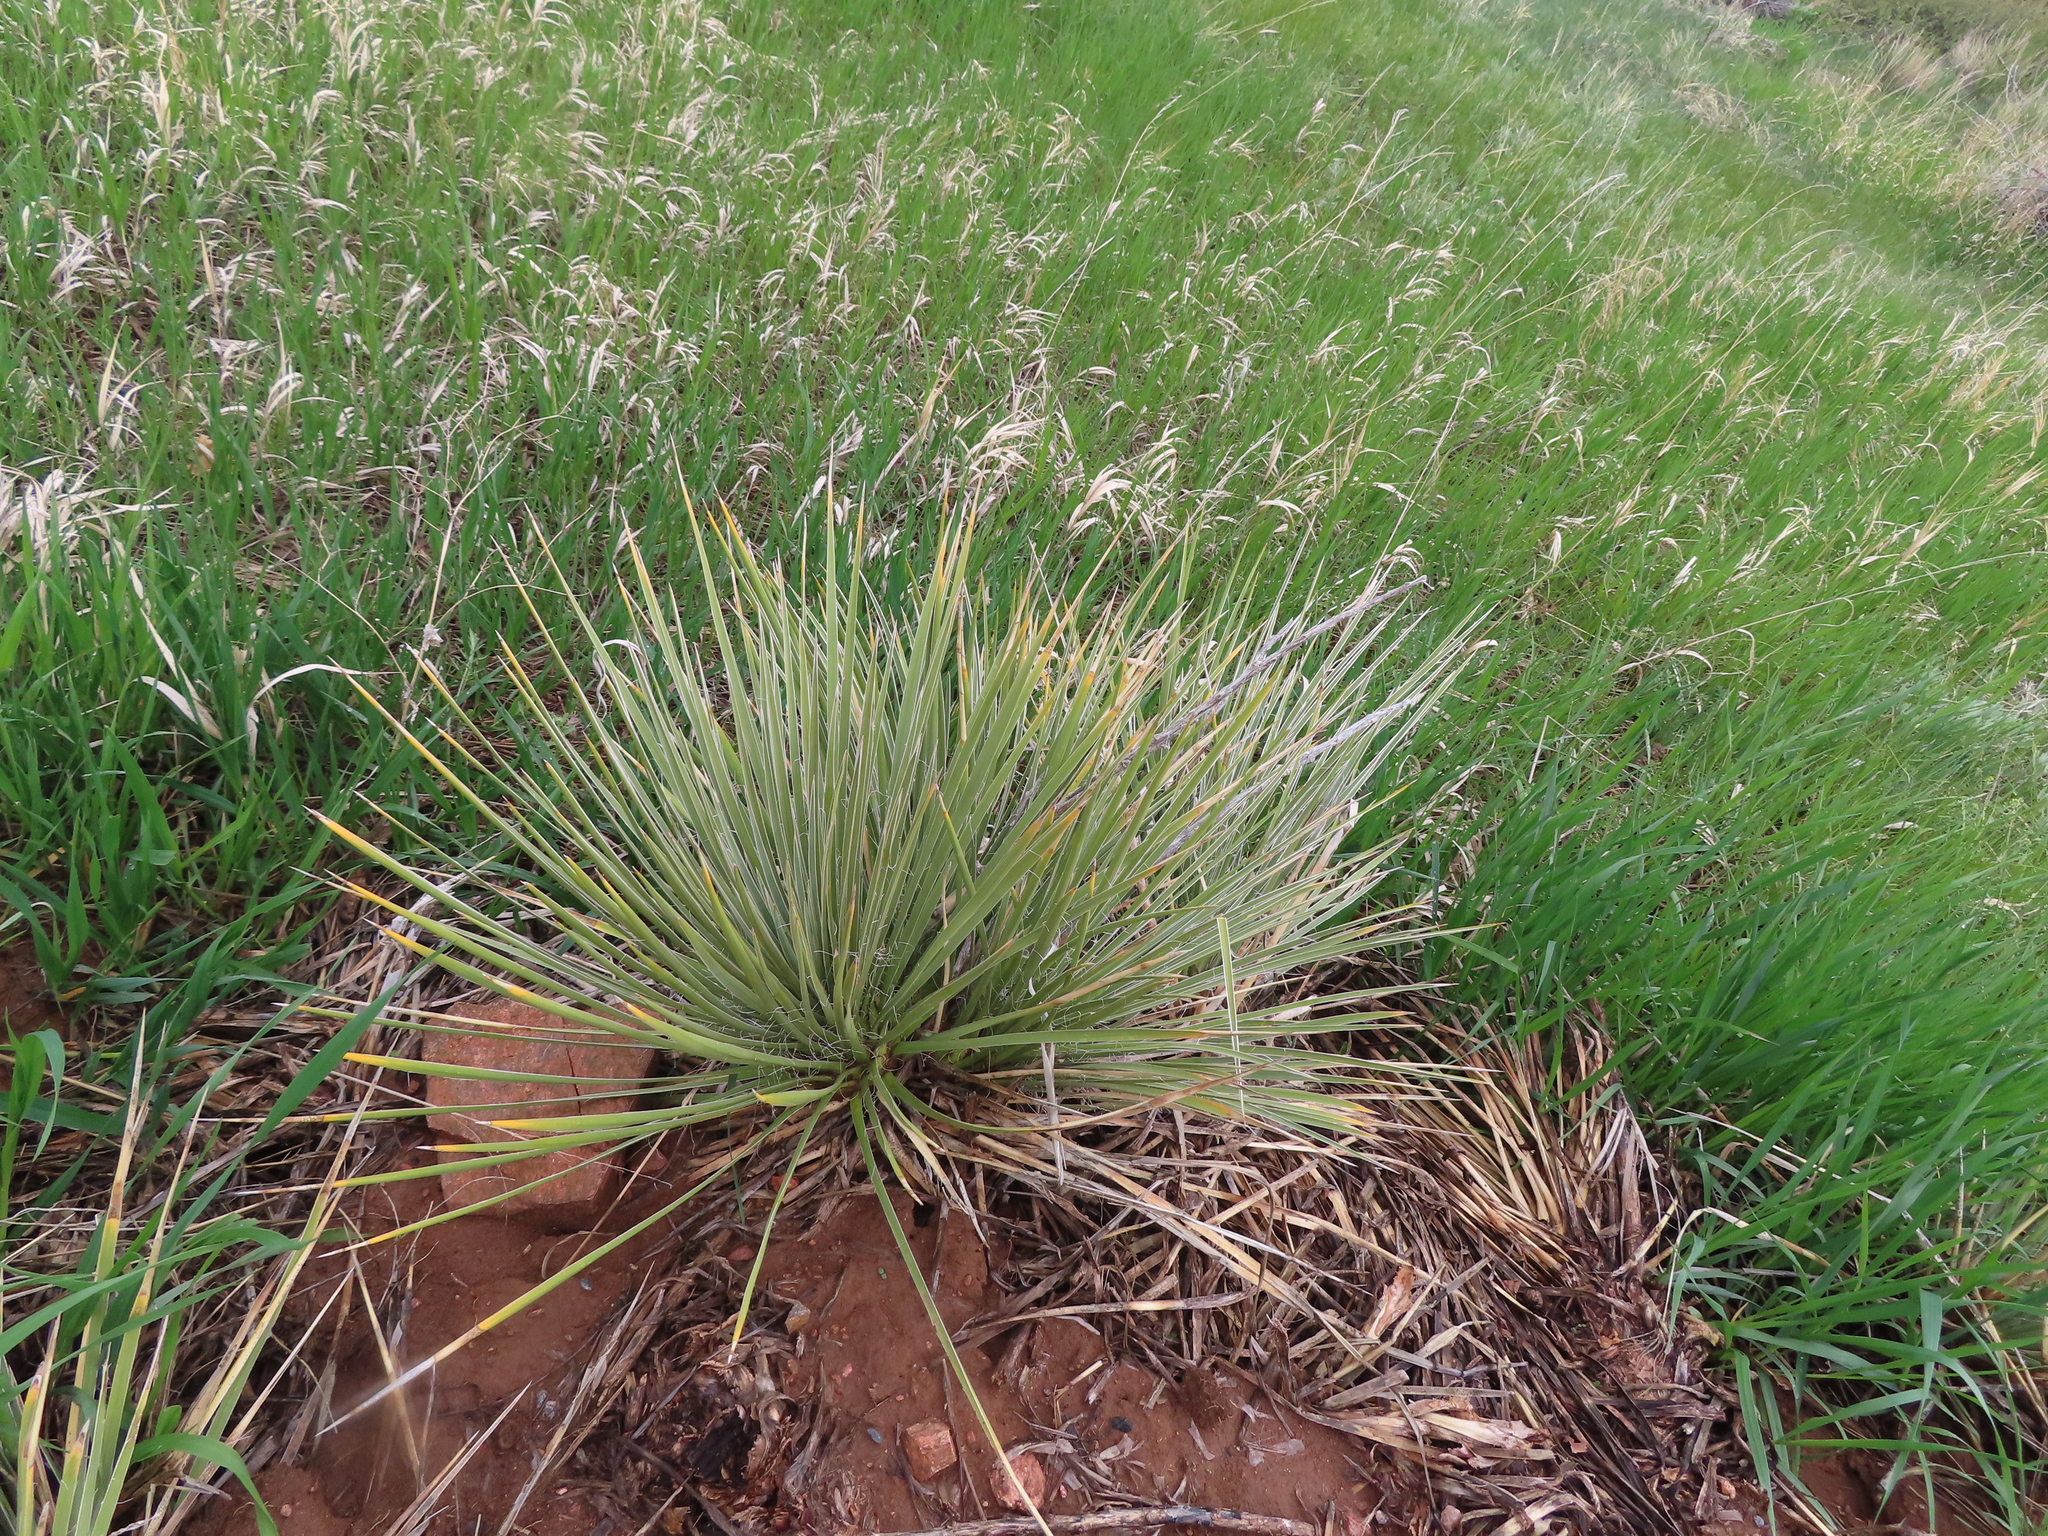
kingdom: Plantae
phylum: Tracheophyta
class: Liliopsida
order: Asparagales
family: Asparagaceae
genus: Yucca
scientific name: Yucca glauca
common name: Great plains yucca
